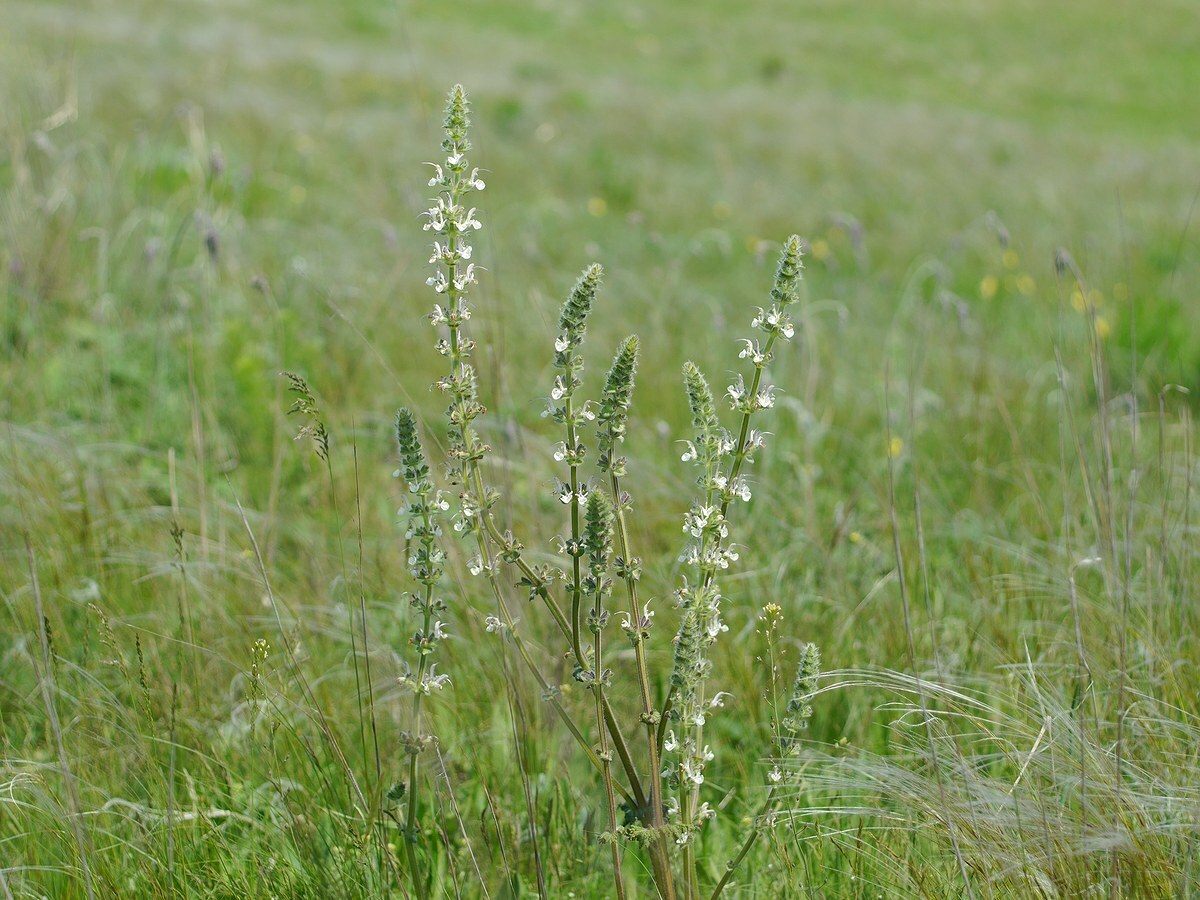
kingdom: Plantae
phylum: Tracheophyta
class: Magnoliopsida
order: Lamiales
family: Lamiaceae
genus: Salvia
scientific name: Salvia revoluta
